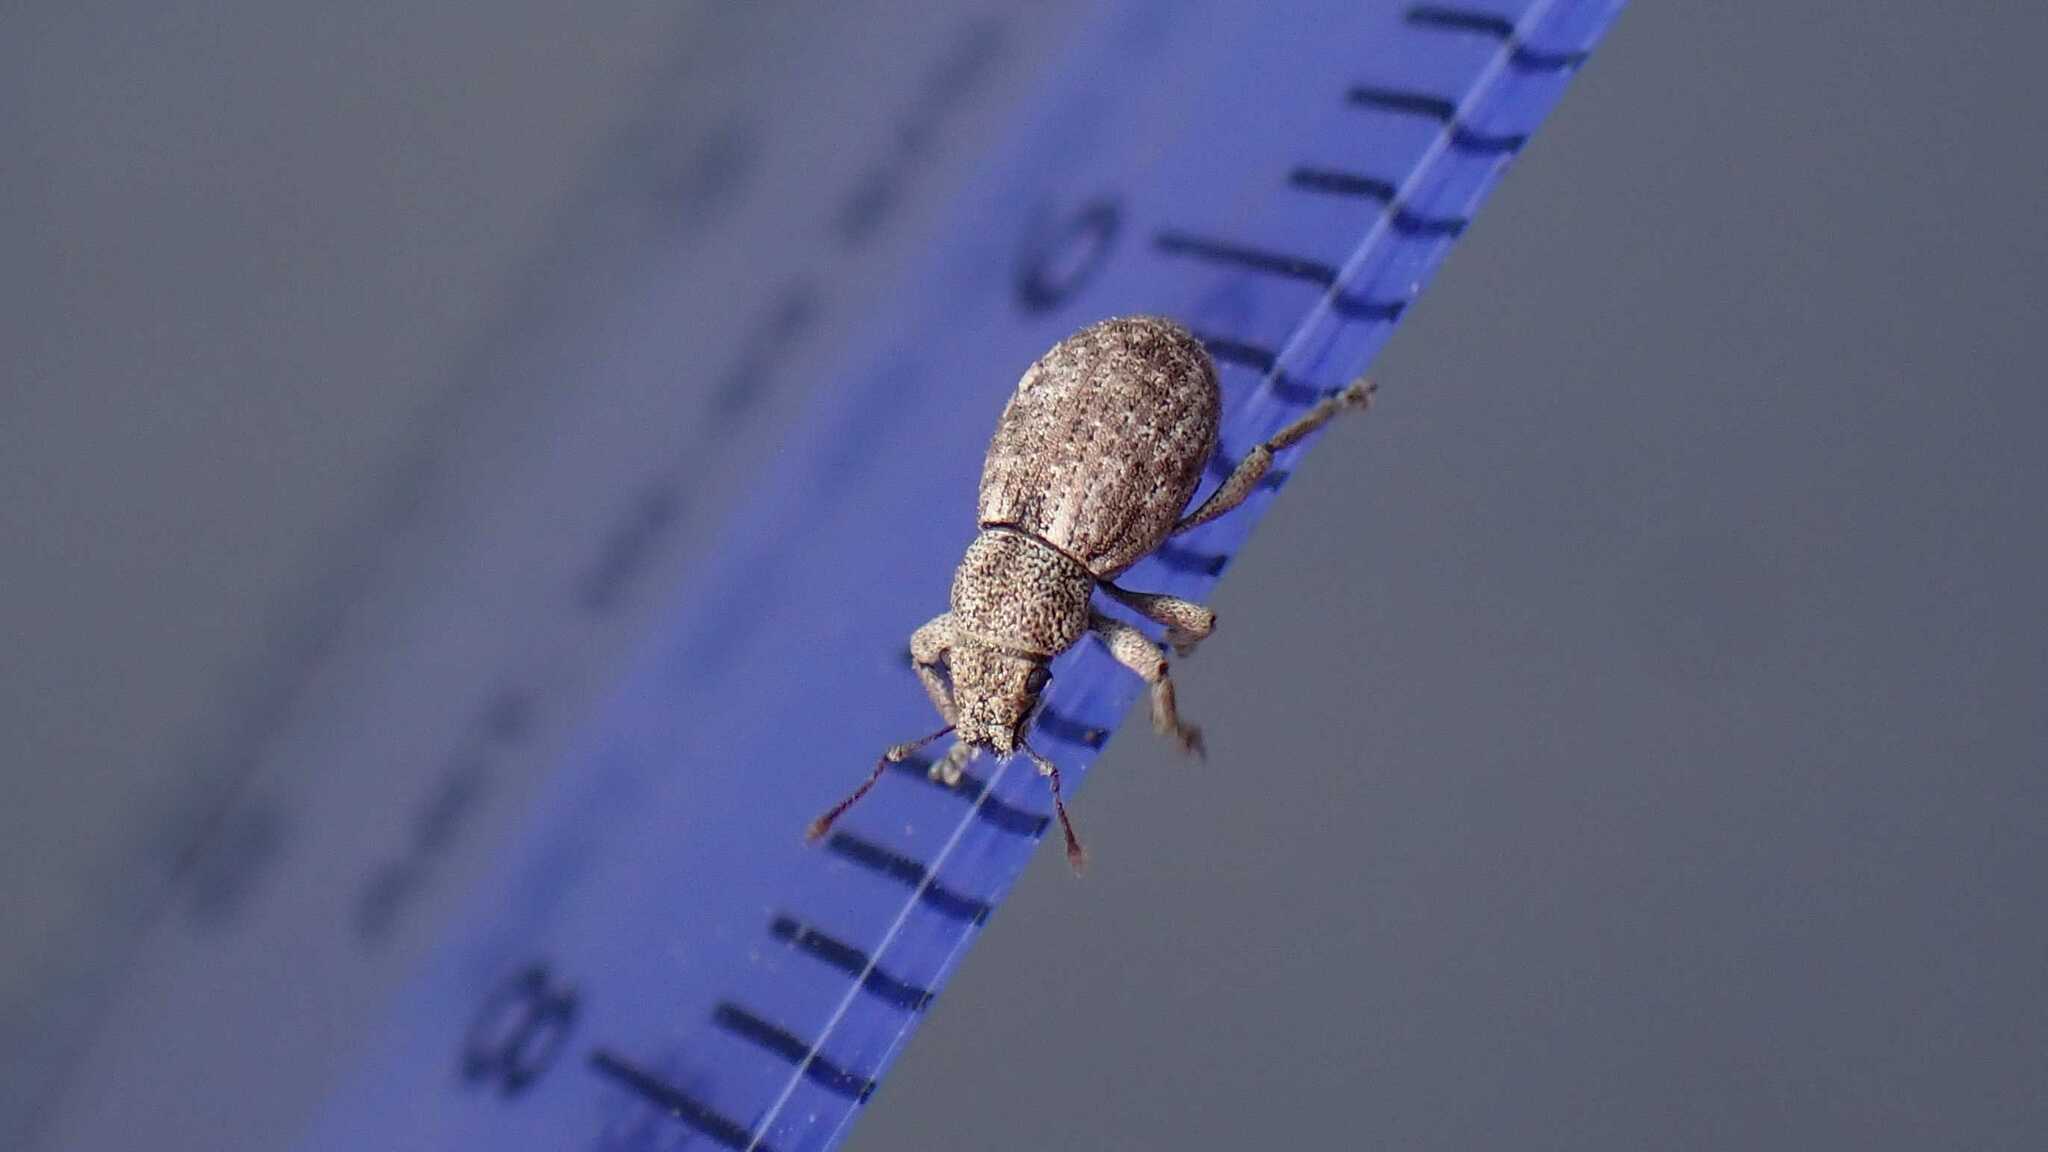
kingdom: Animalia
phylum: Arthropoda
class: Insecta
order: Coleoptera
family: Curculionidae
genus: Strophosoma
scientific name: Strophosoma capitatum
